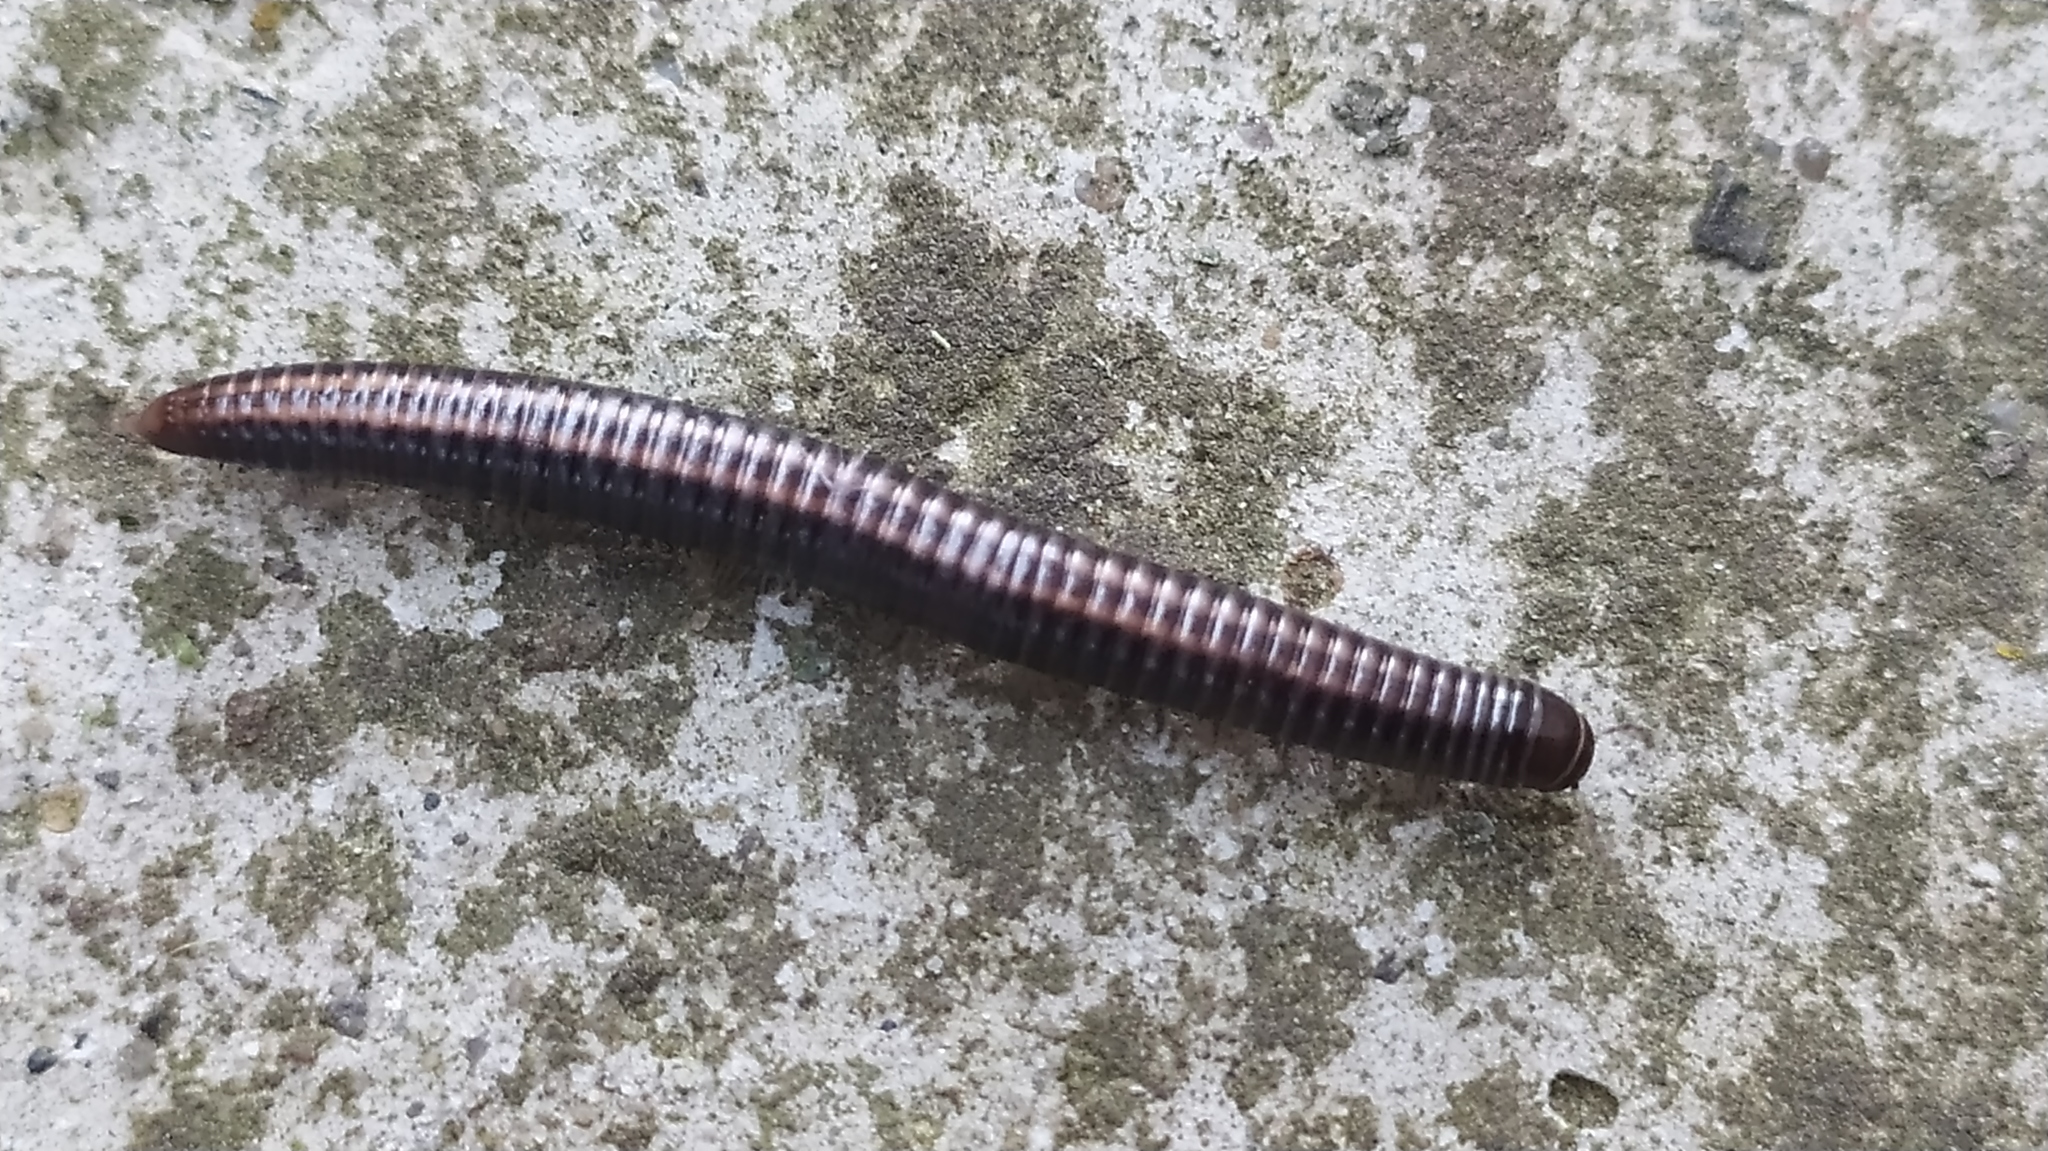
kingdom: Animalia
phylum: Arthropoda
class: Diplopoda
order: Julida
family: Julidae
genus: Ommatoiulus
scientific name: Ommatoiulus sabulosus
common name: Striped millipede
